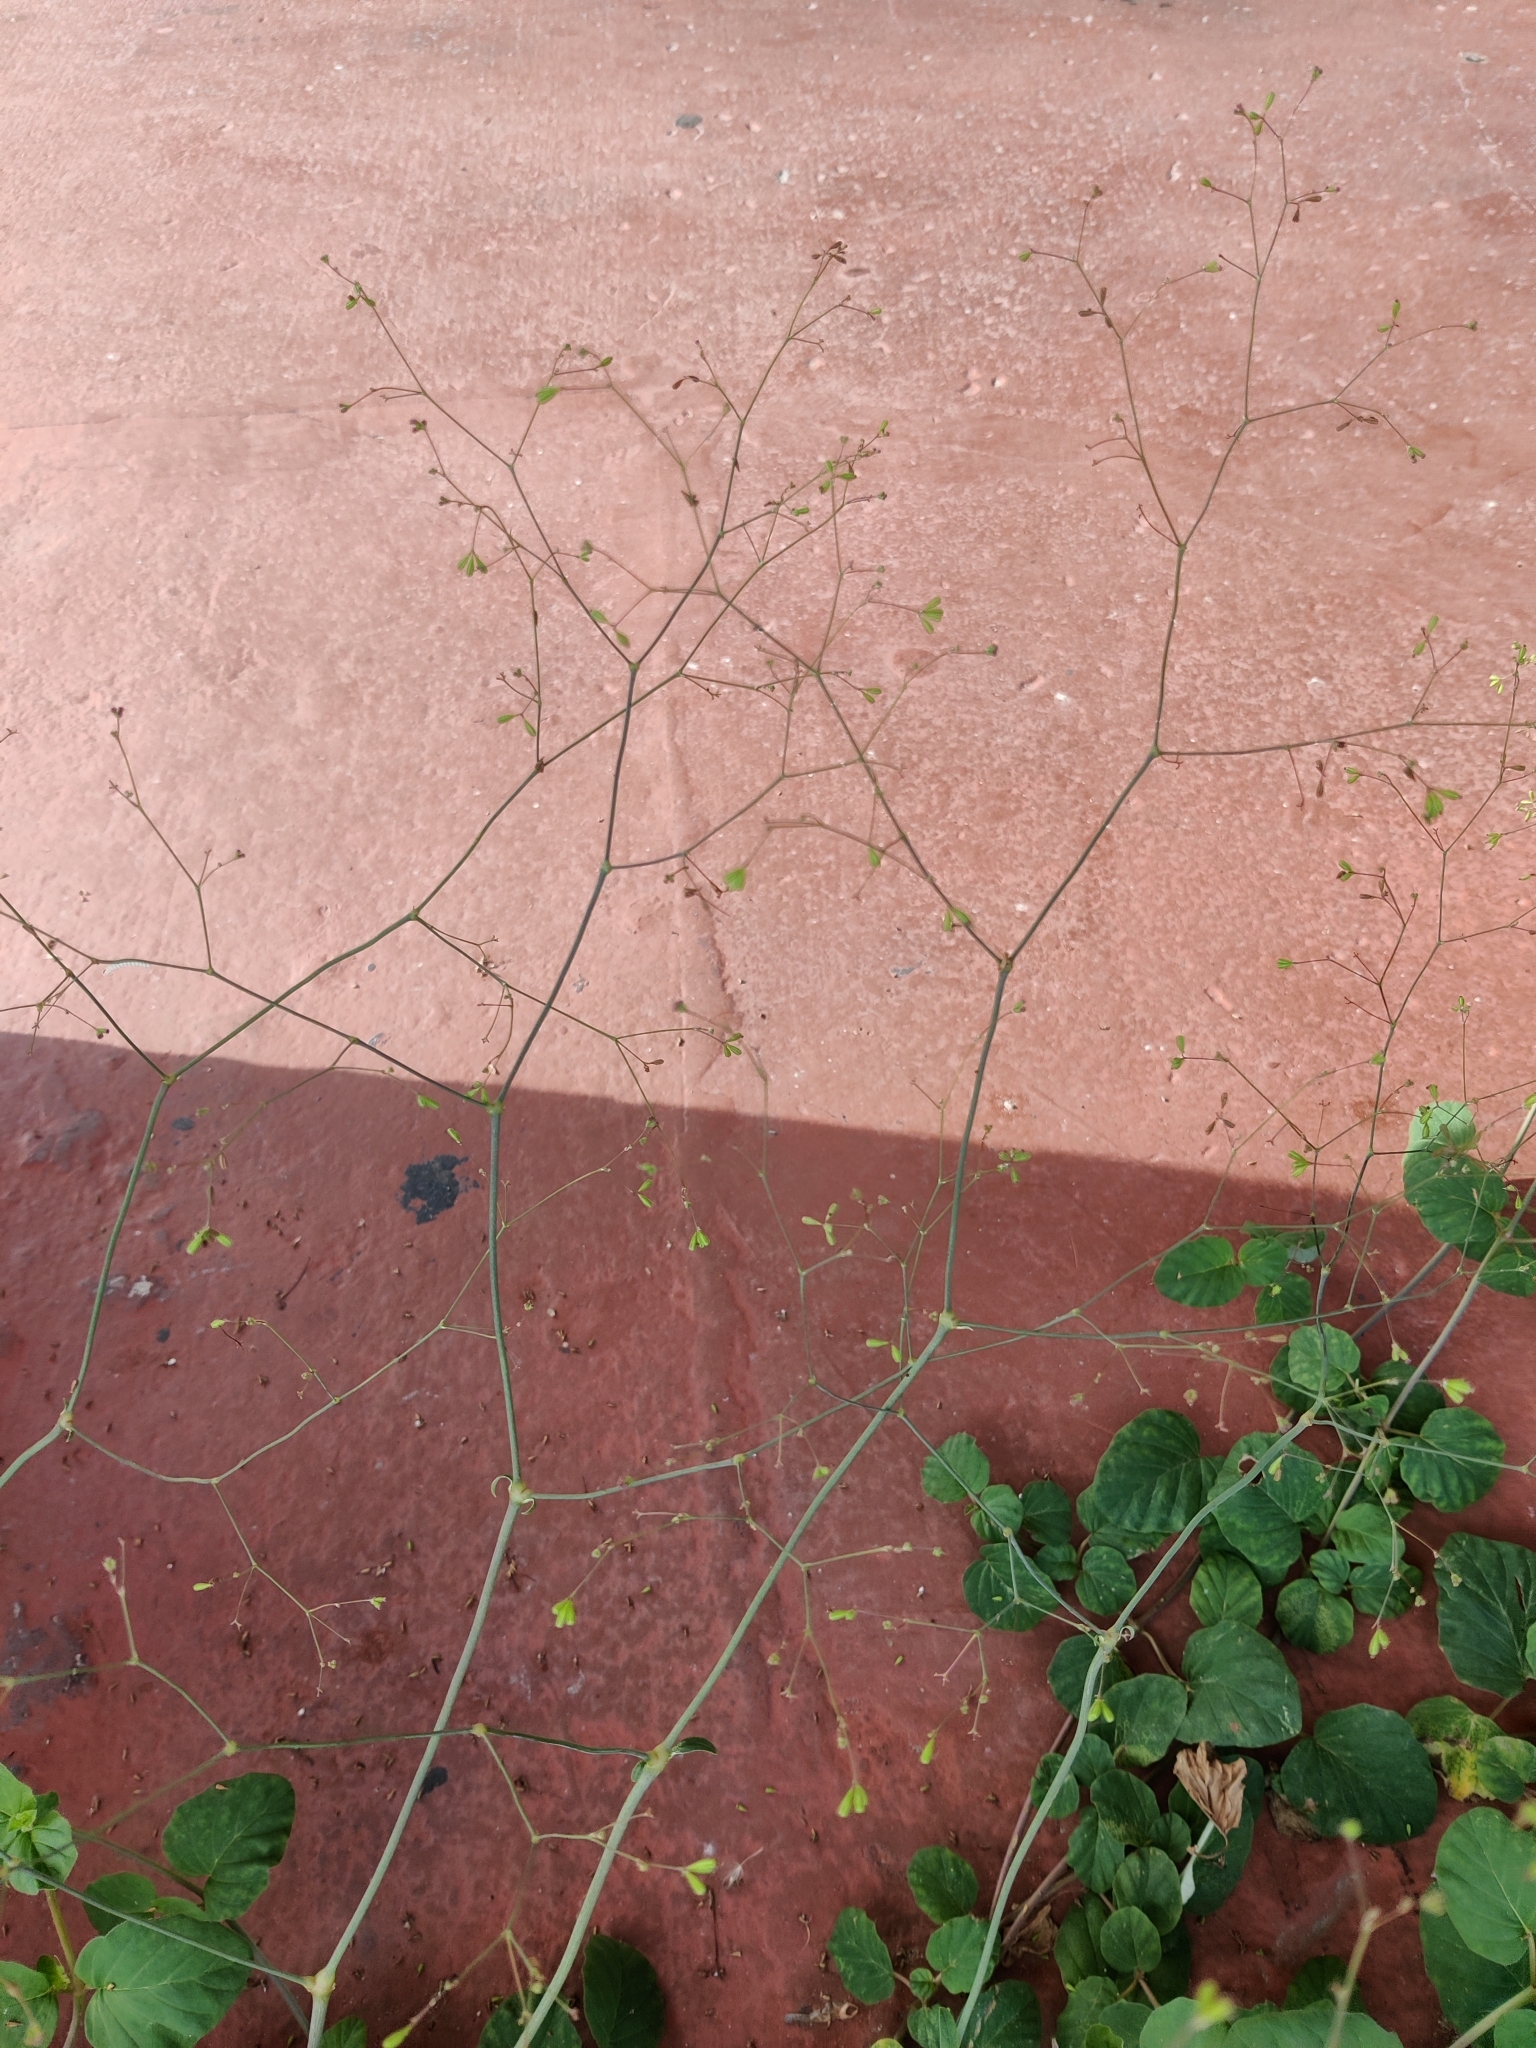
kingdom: Plantae
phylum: Tracheophyta
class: Magnoliopsida
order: Caryophyllales
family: Nyctaginaceae
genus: Boerhavia
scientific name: Boerhavia diffusa
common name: Red spiderling
